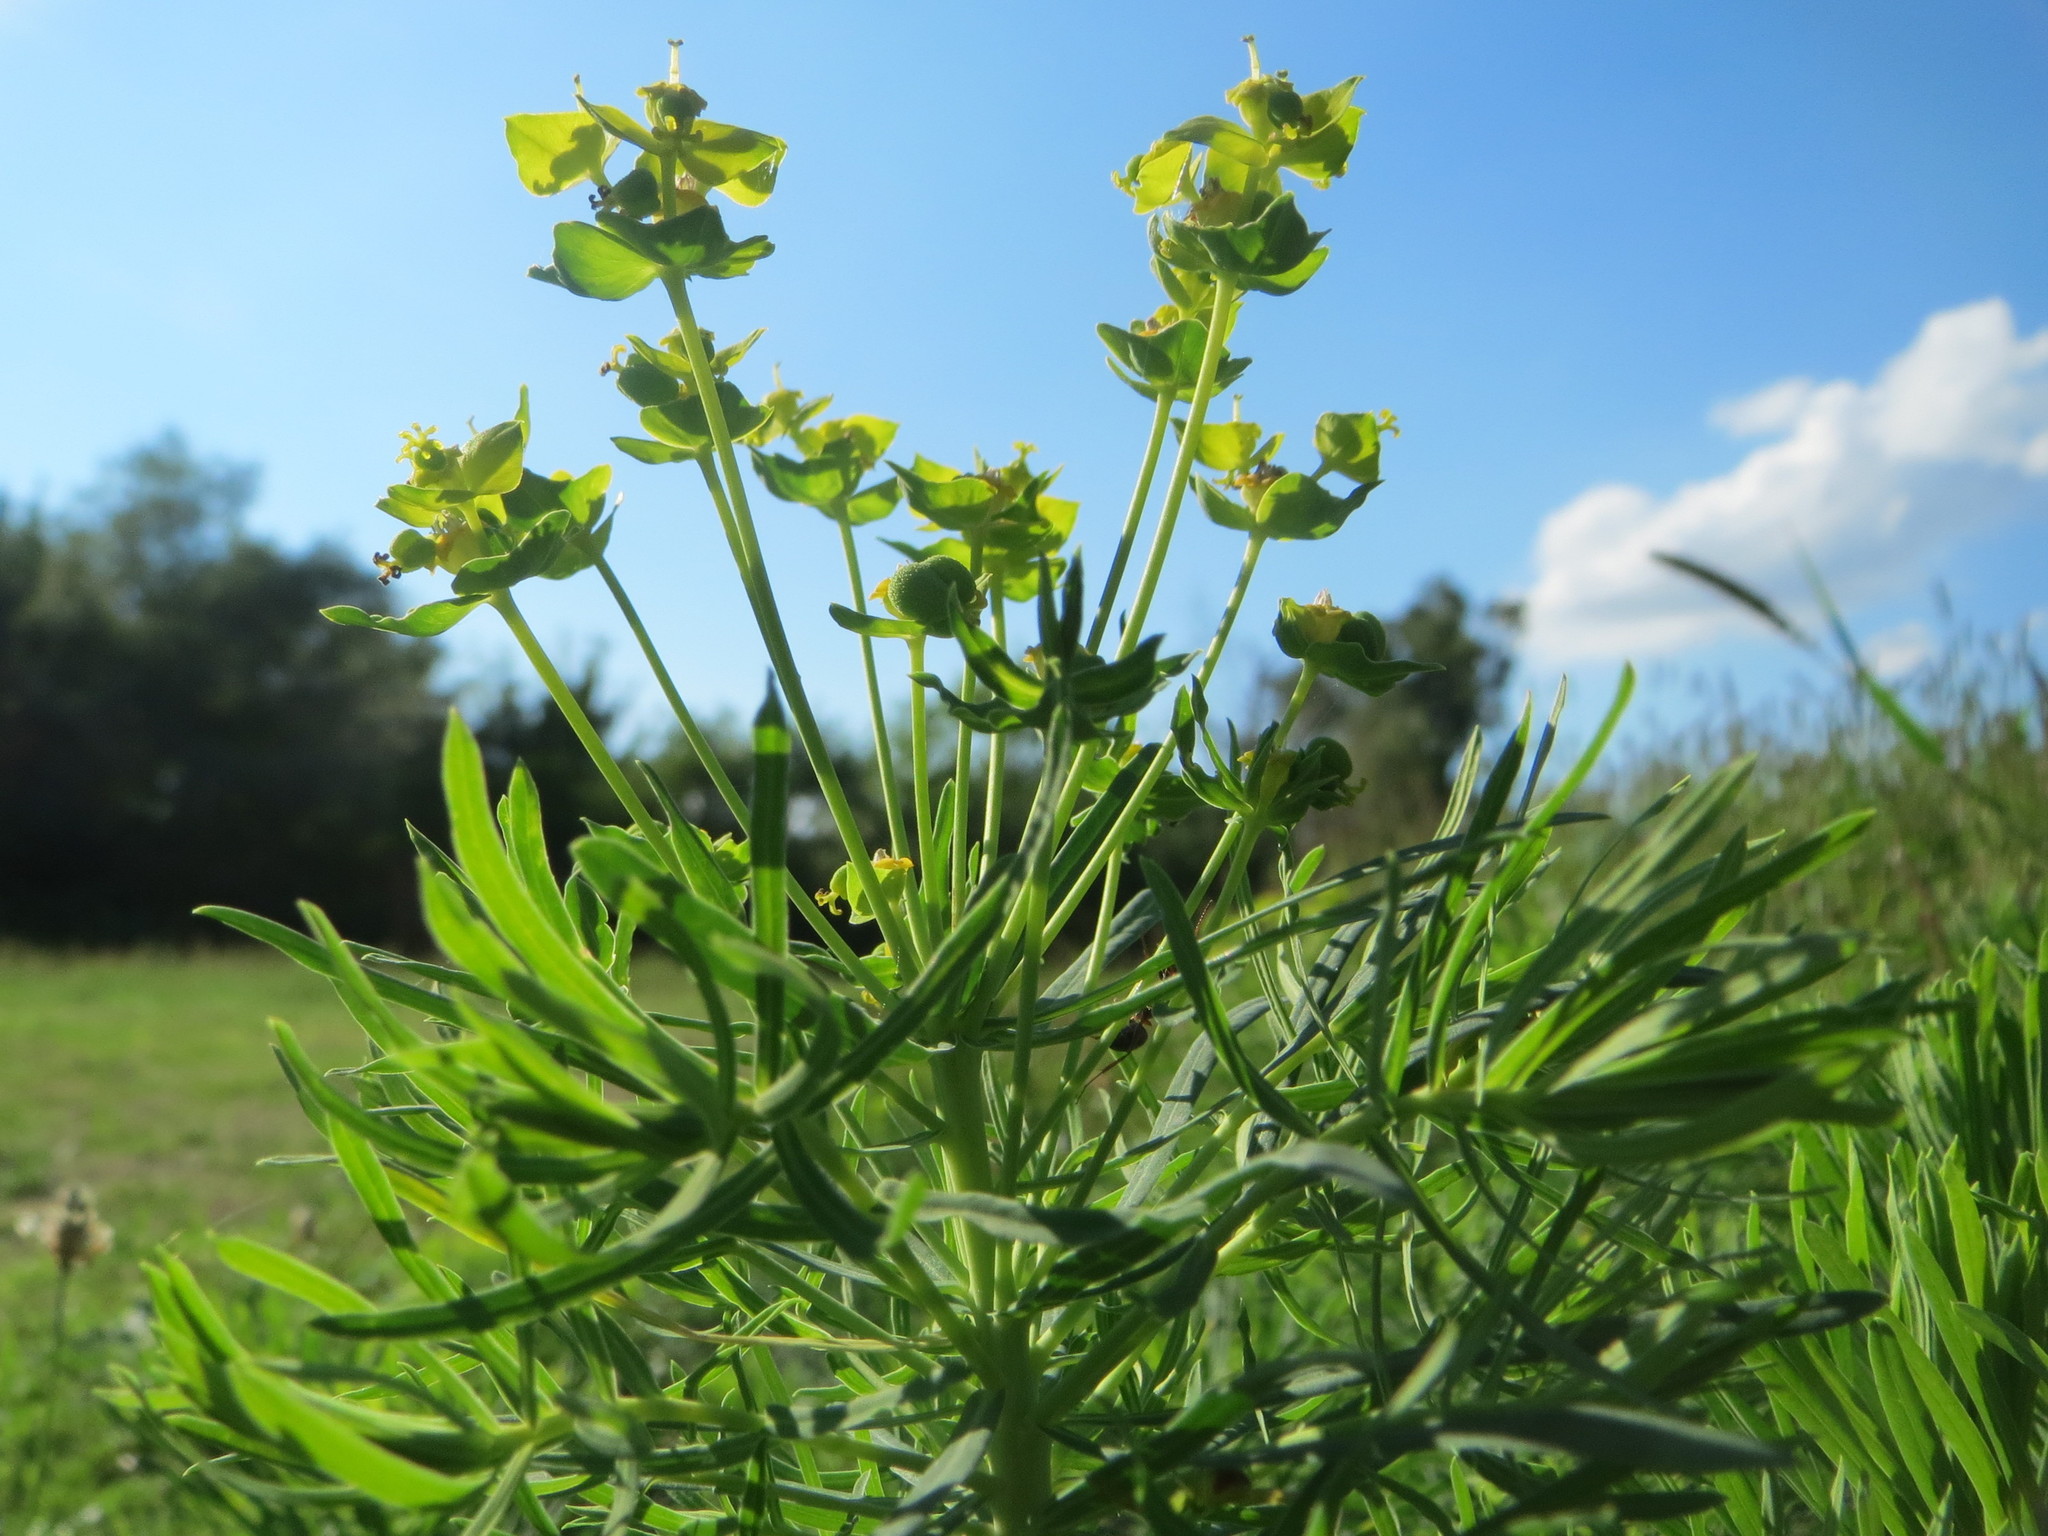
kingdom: Plantae
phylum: Tracheophyta
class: Magnoliopsida
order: Malpighiales
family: Euphorbiaceae
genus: Euphorbia
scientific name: Euphorbia cyparissias
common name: Cypress spurge
